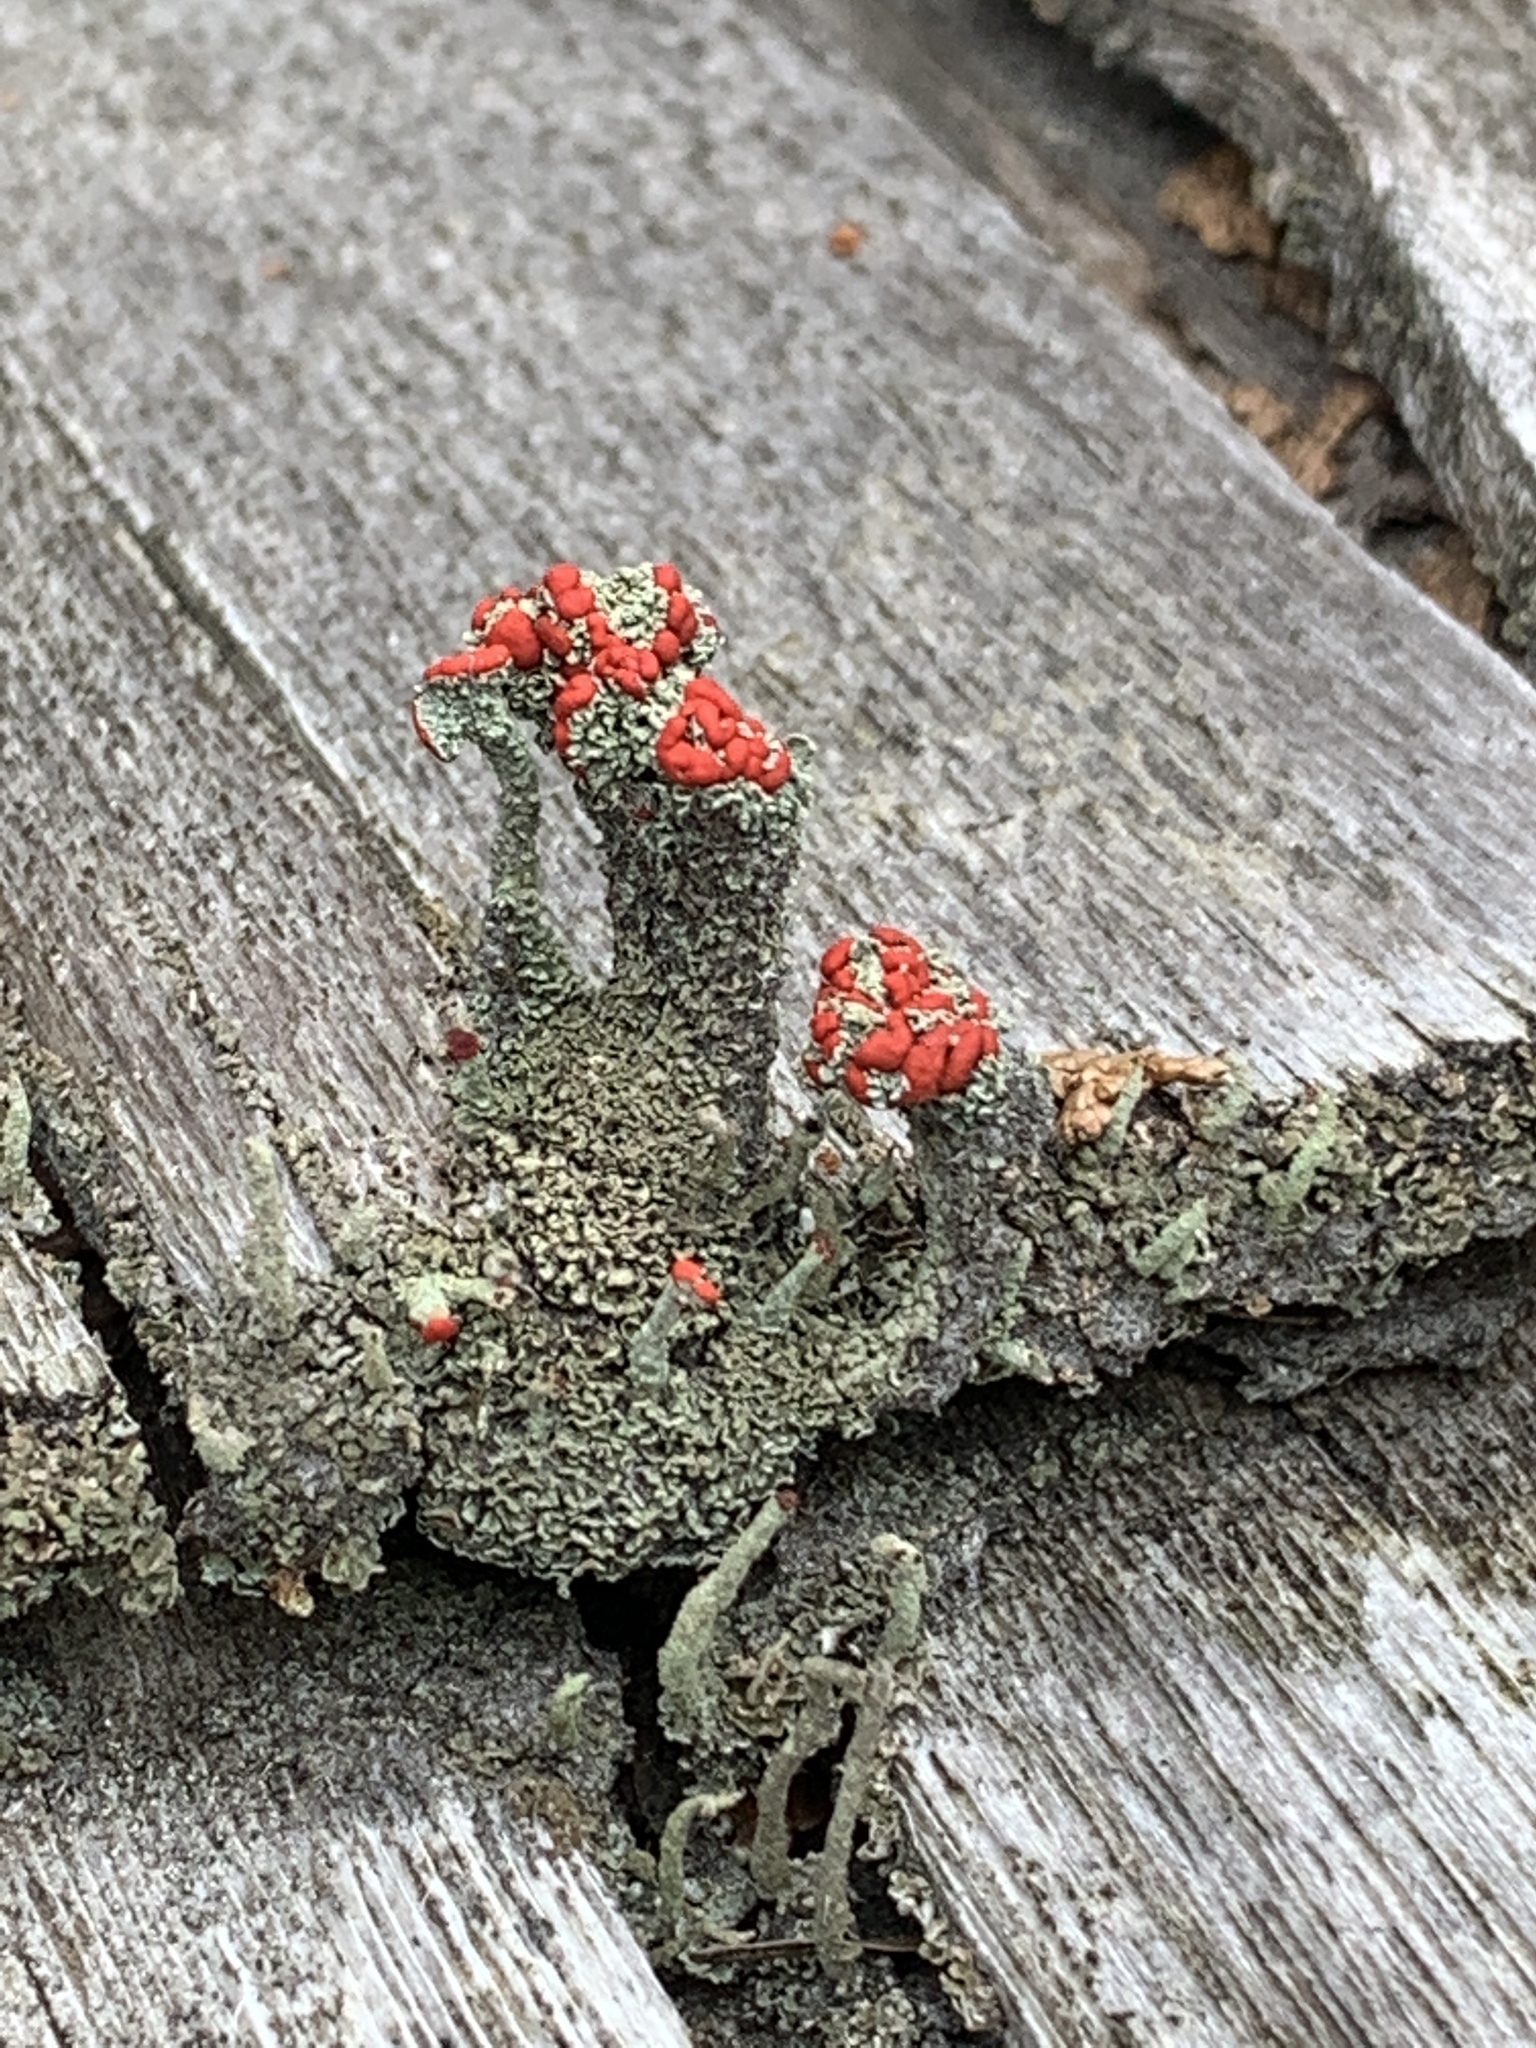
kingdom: Fungi
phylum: Ascomycota
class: Lecanoromycetes
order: Lecanorales
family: Cladoniaceae
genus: Cladonia
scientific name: Cladonia cristatella
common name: British soldier lichen
